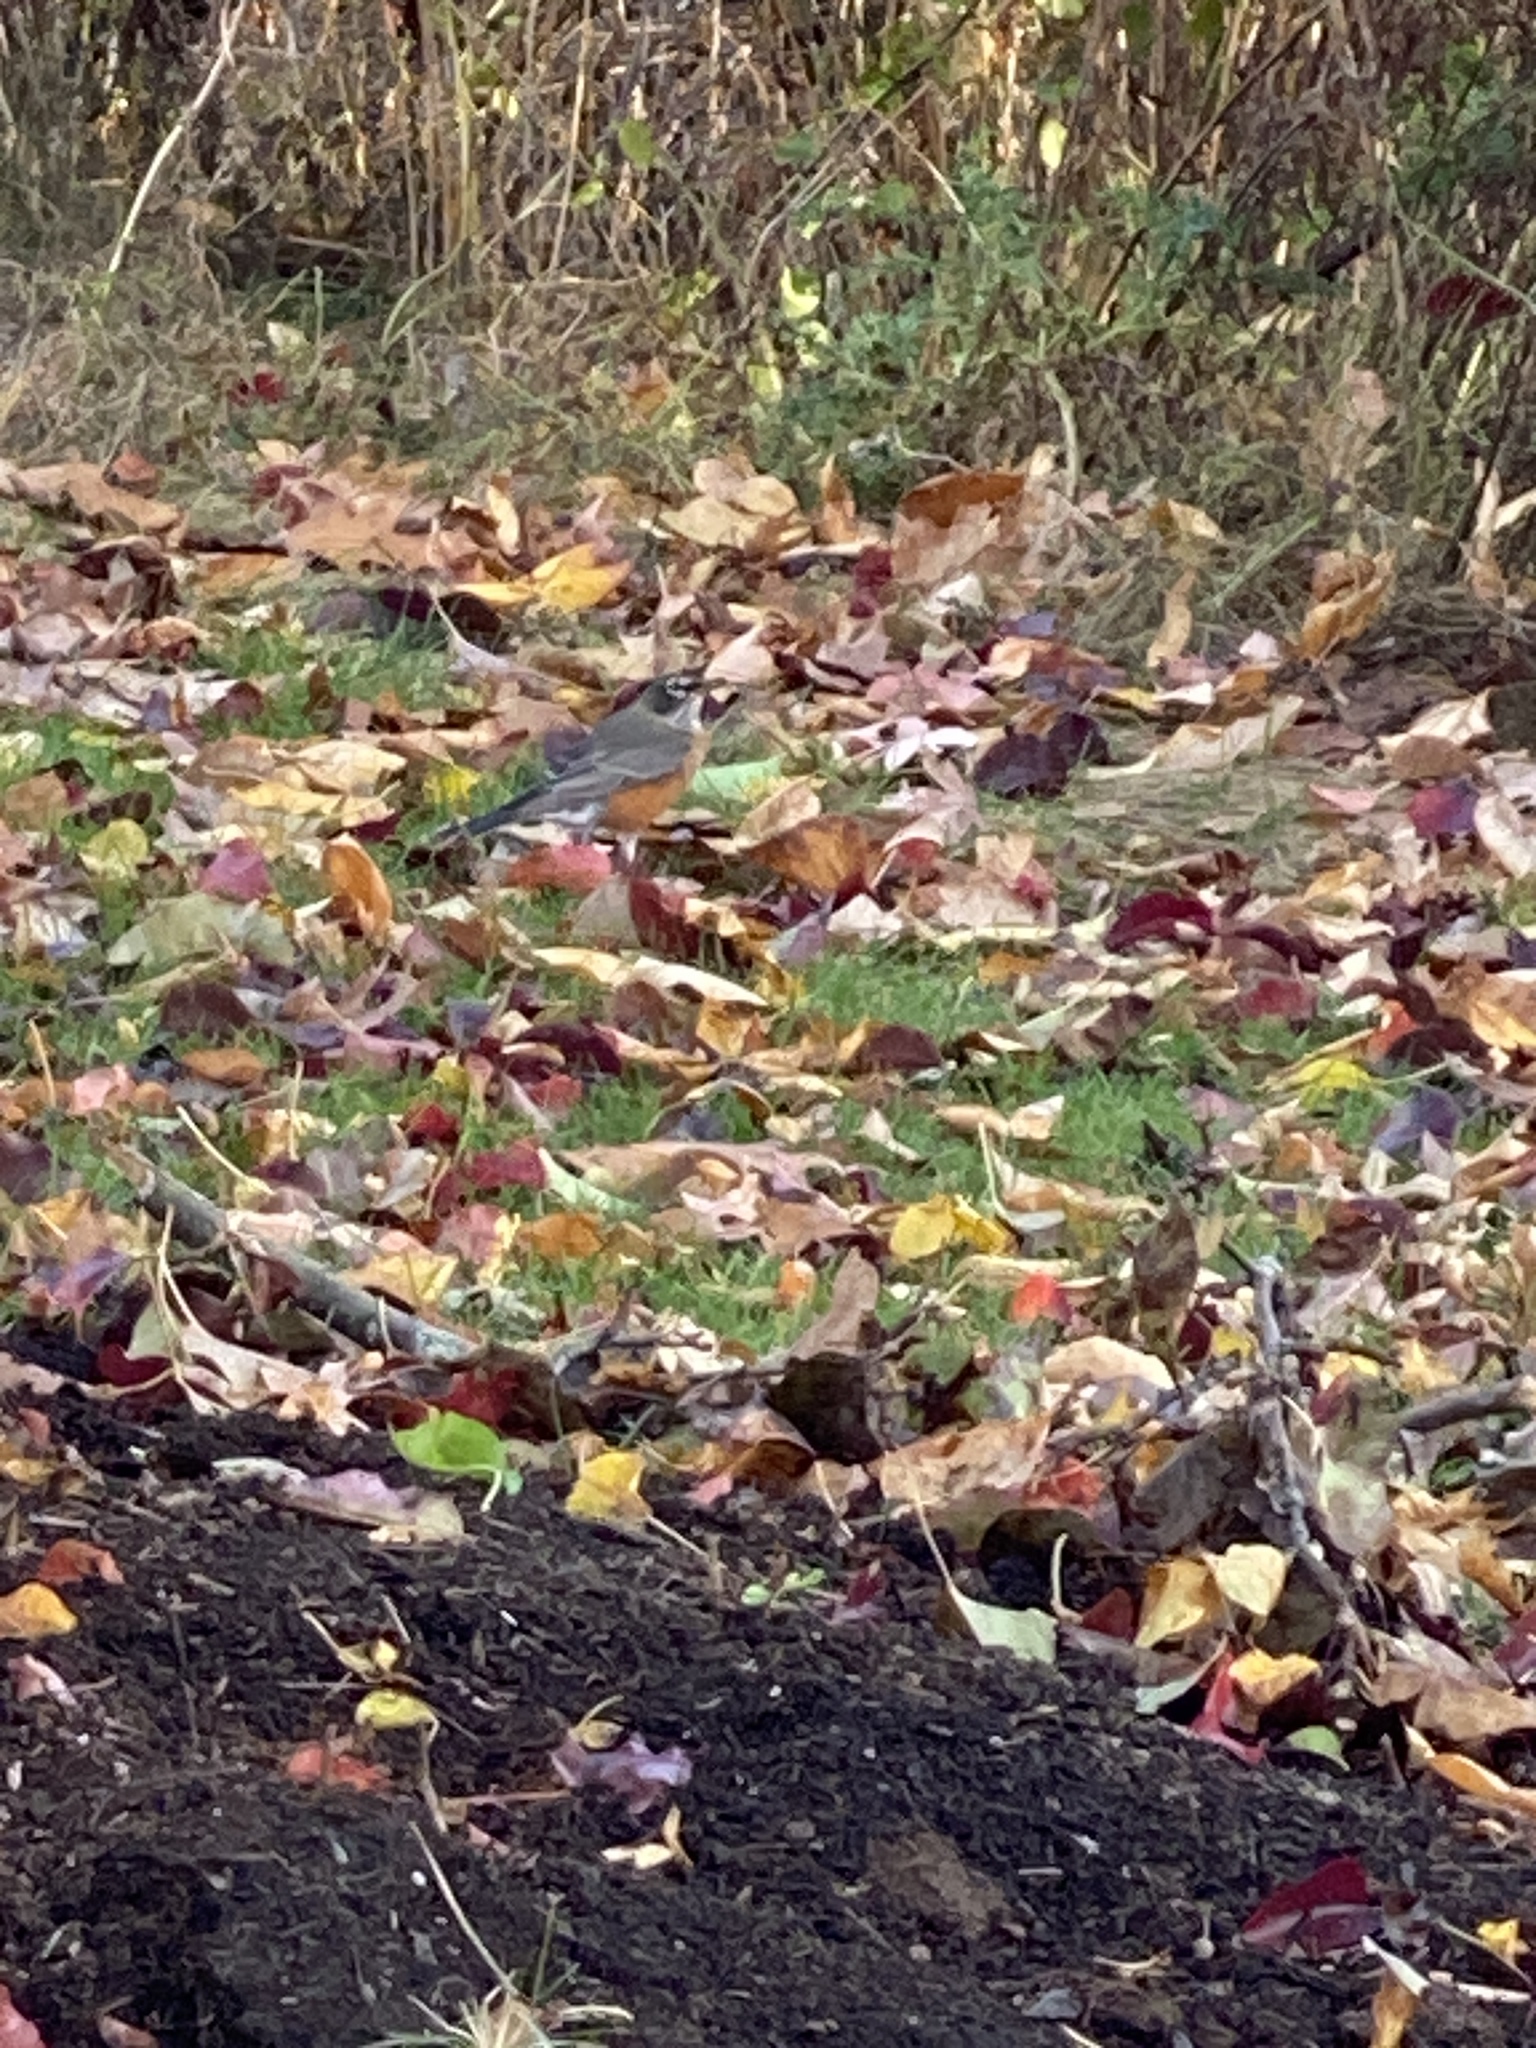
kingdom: Animalia
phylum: Chordata
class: Aves
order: Passeriformes
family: Turdidae
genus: Turdus
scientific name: Turdus migratorius
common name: American robin
